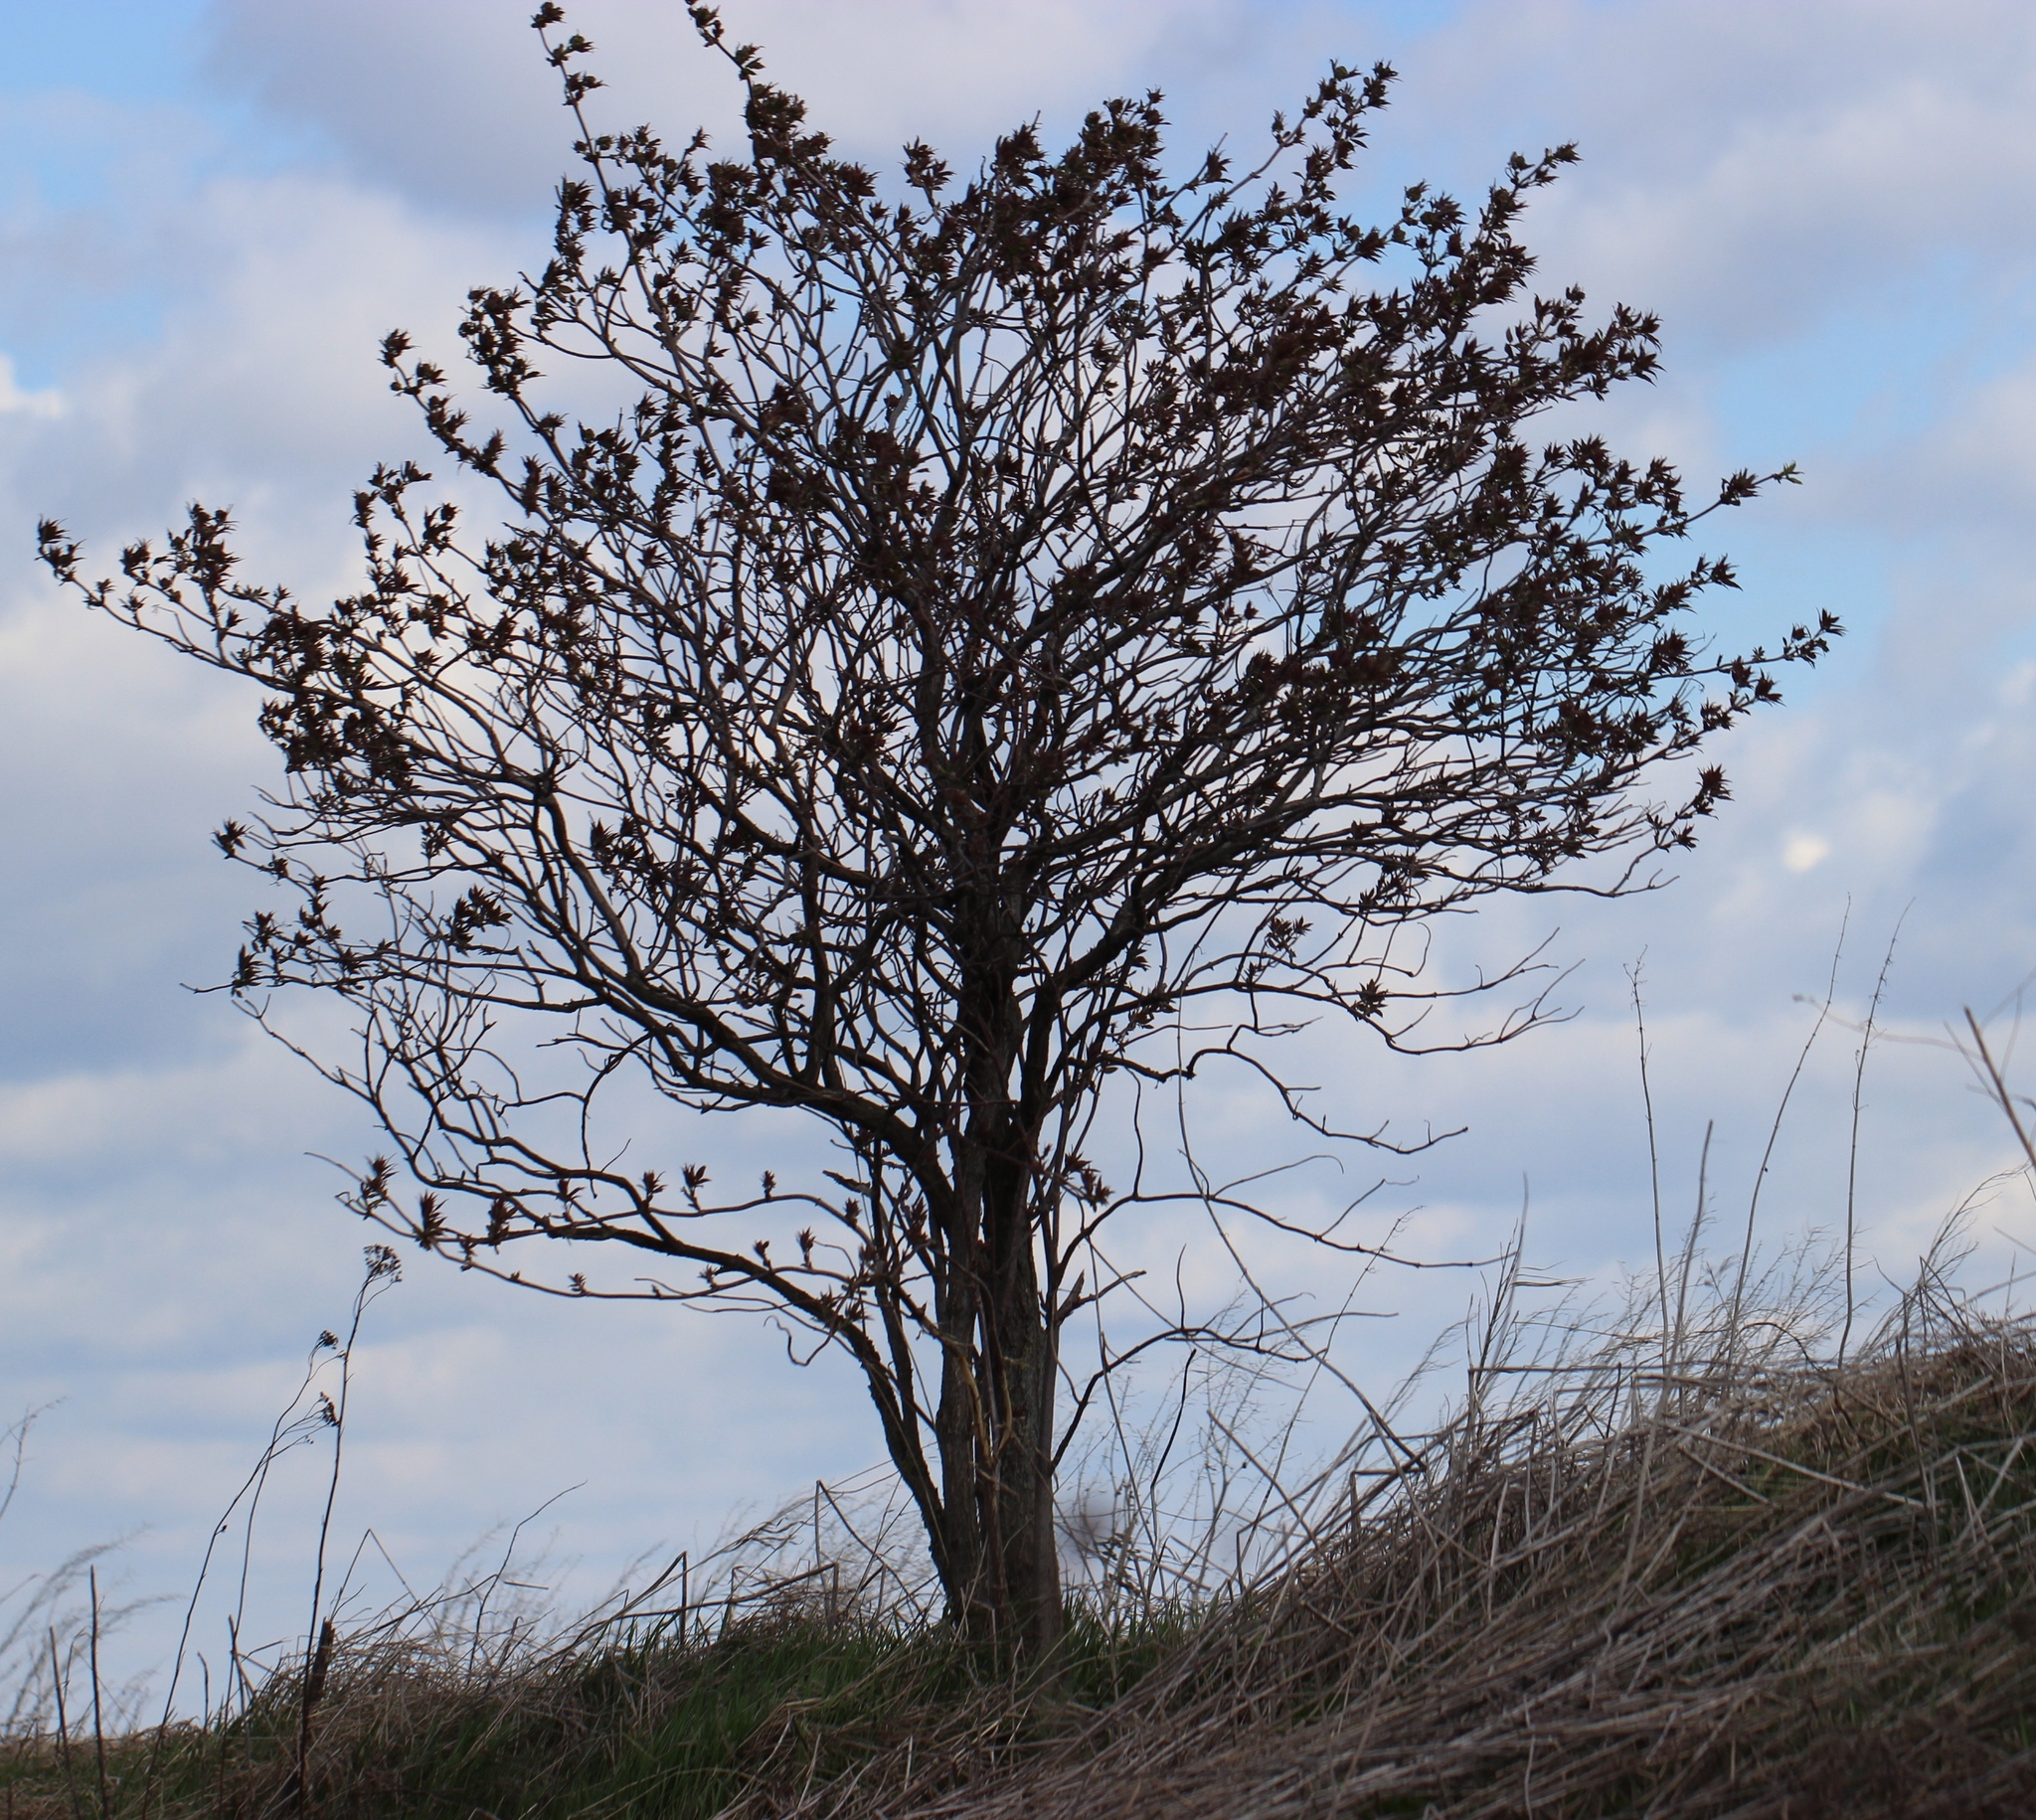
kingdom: Plantae
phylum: Tracheophyta
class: Magnoliopsida
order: Dipsacales
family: Viburnaceae
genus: Sambucus
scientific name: Sambucus racemosa
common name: Red-berried elder
